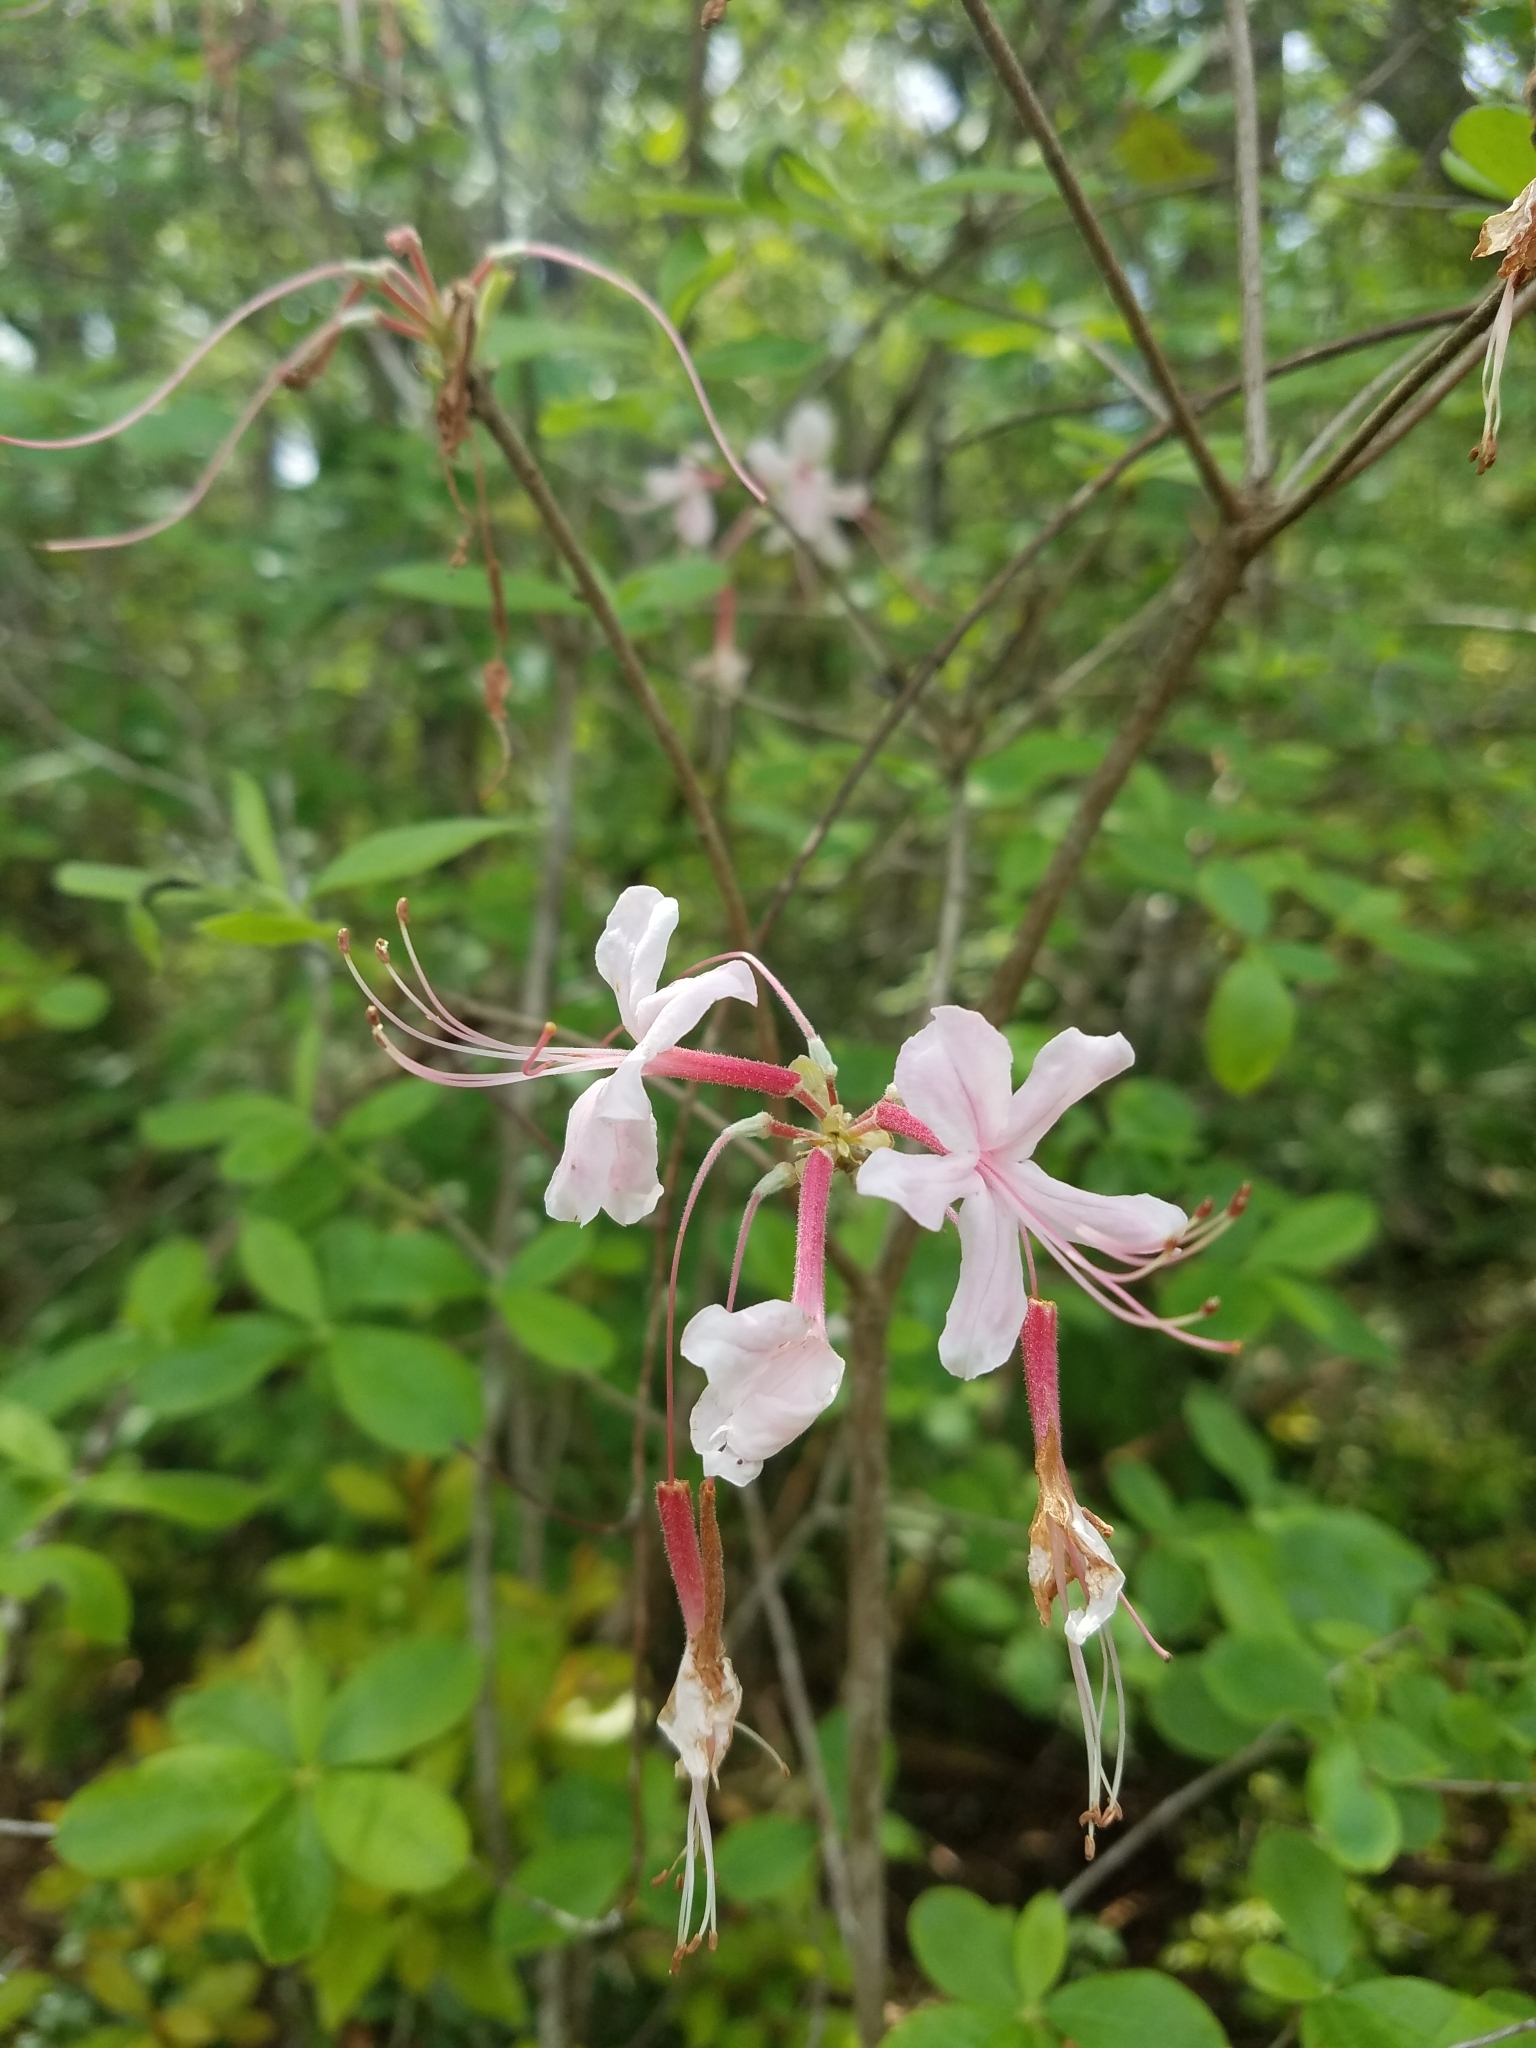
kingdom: Plantae
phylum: Tracheophyta
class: Magnoliopsida
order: Ericales
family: Ericaceae
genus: Rhododendron
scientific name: Rhododendron canescens
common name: Mountain azalea
